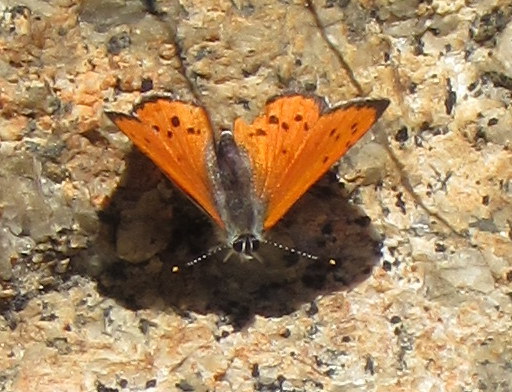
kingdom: Animalia
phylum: Arthropoda
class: Insecta
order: Lepidoptera
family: Lycaenidae
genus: Lycaena
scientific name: Lycaena cupreus
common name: Lustrous copper
